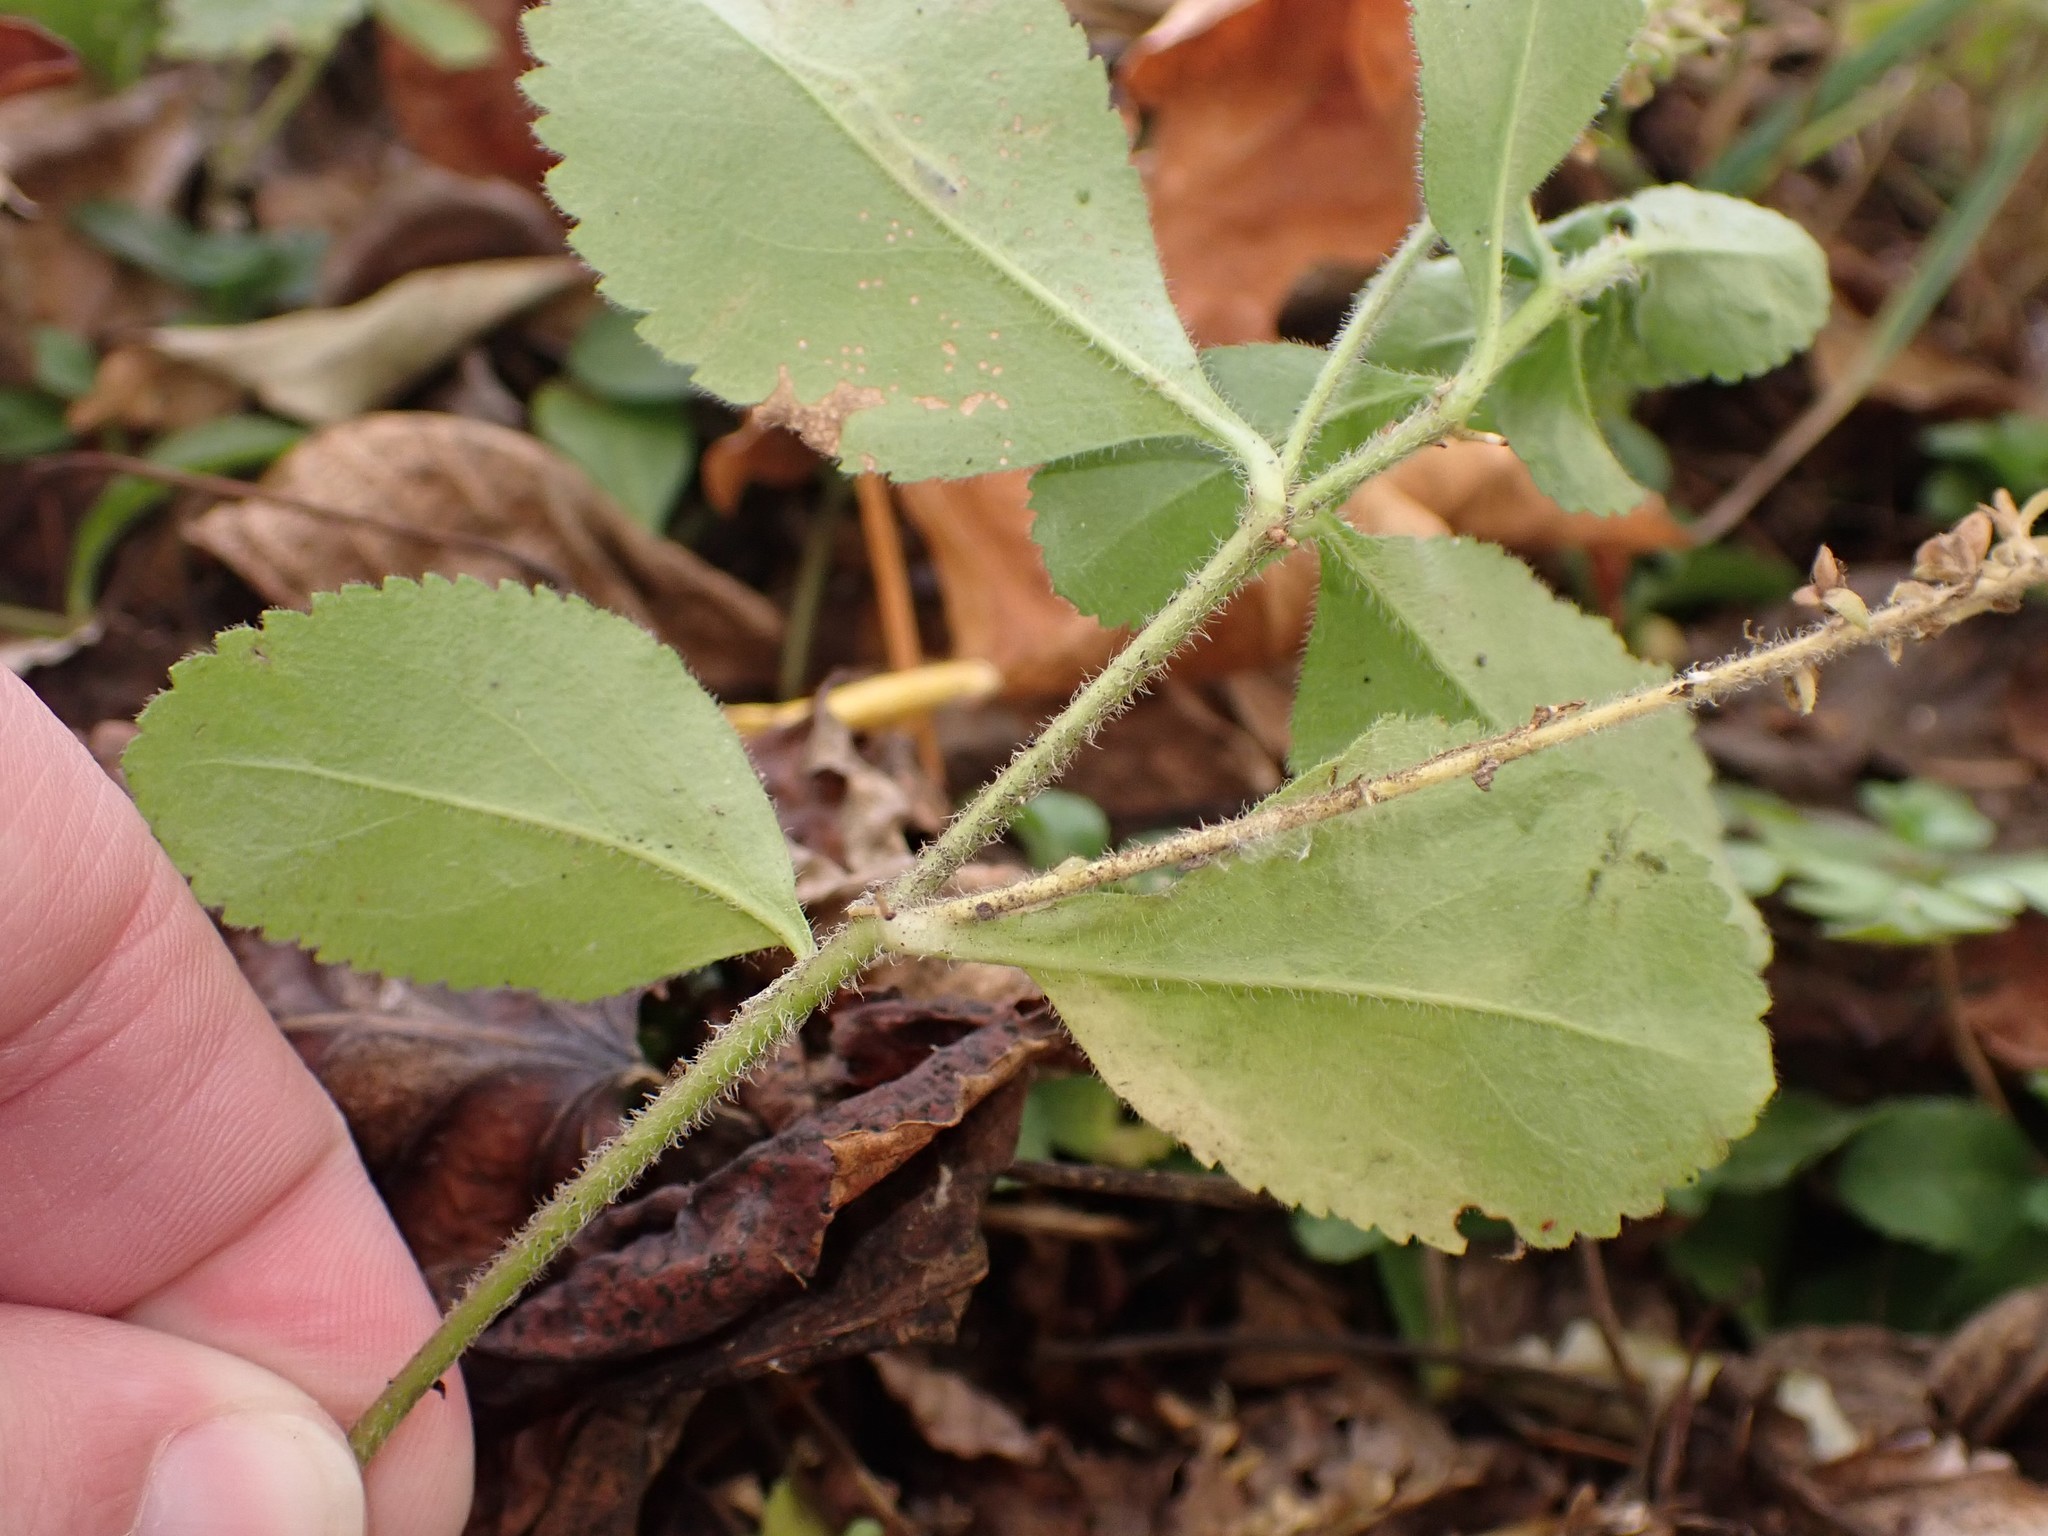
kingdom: Plantae
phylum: Tracheophyta
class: Magnoliopsida
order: Lamiales
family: Plantaginaceae
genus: Veronica
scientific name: Veronica officinalis
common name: Common speedwell
